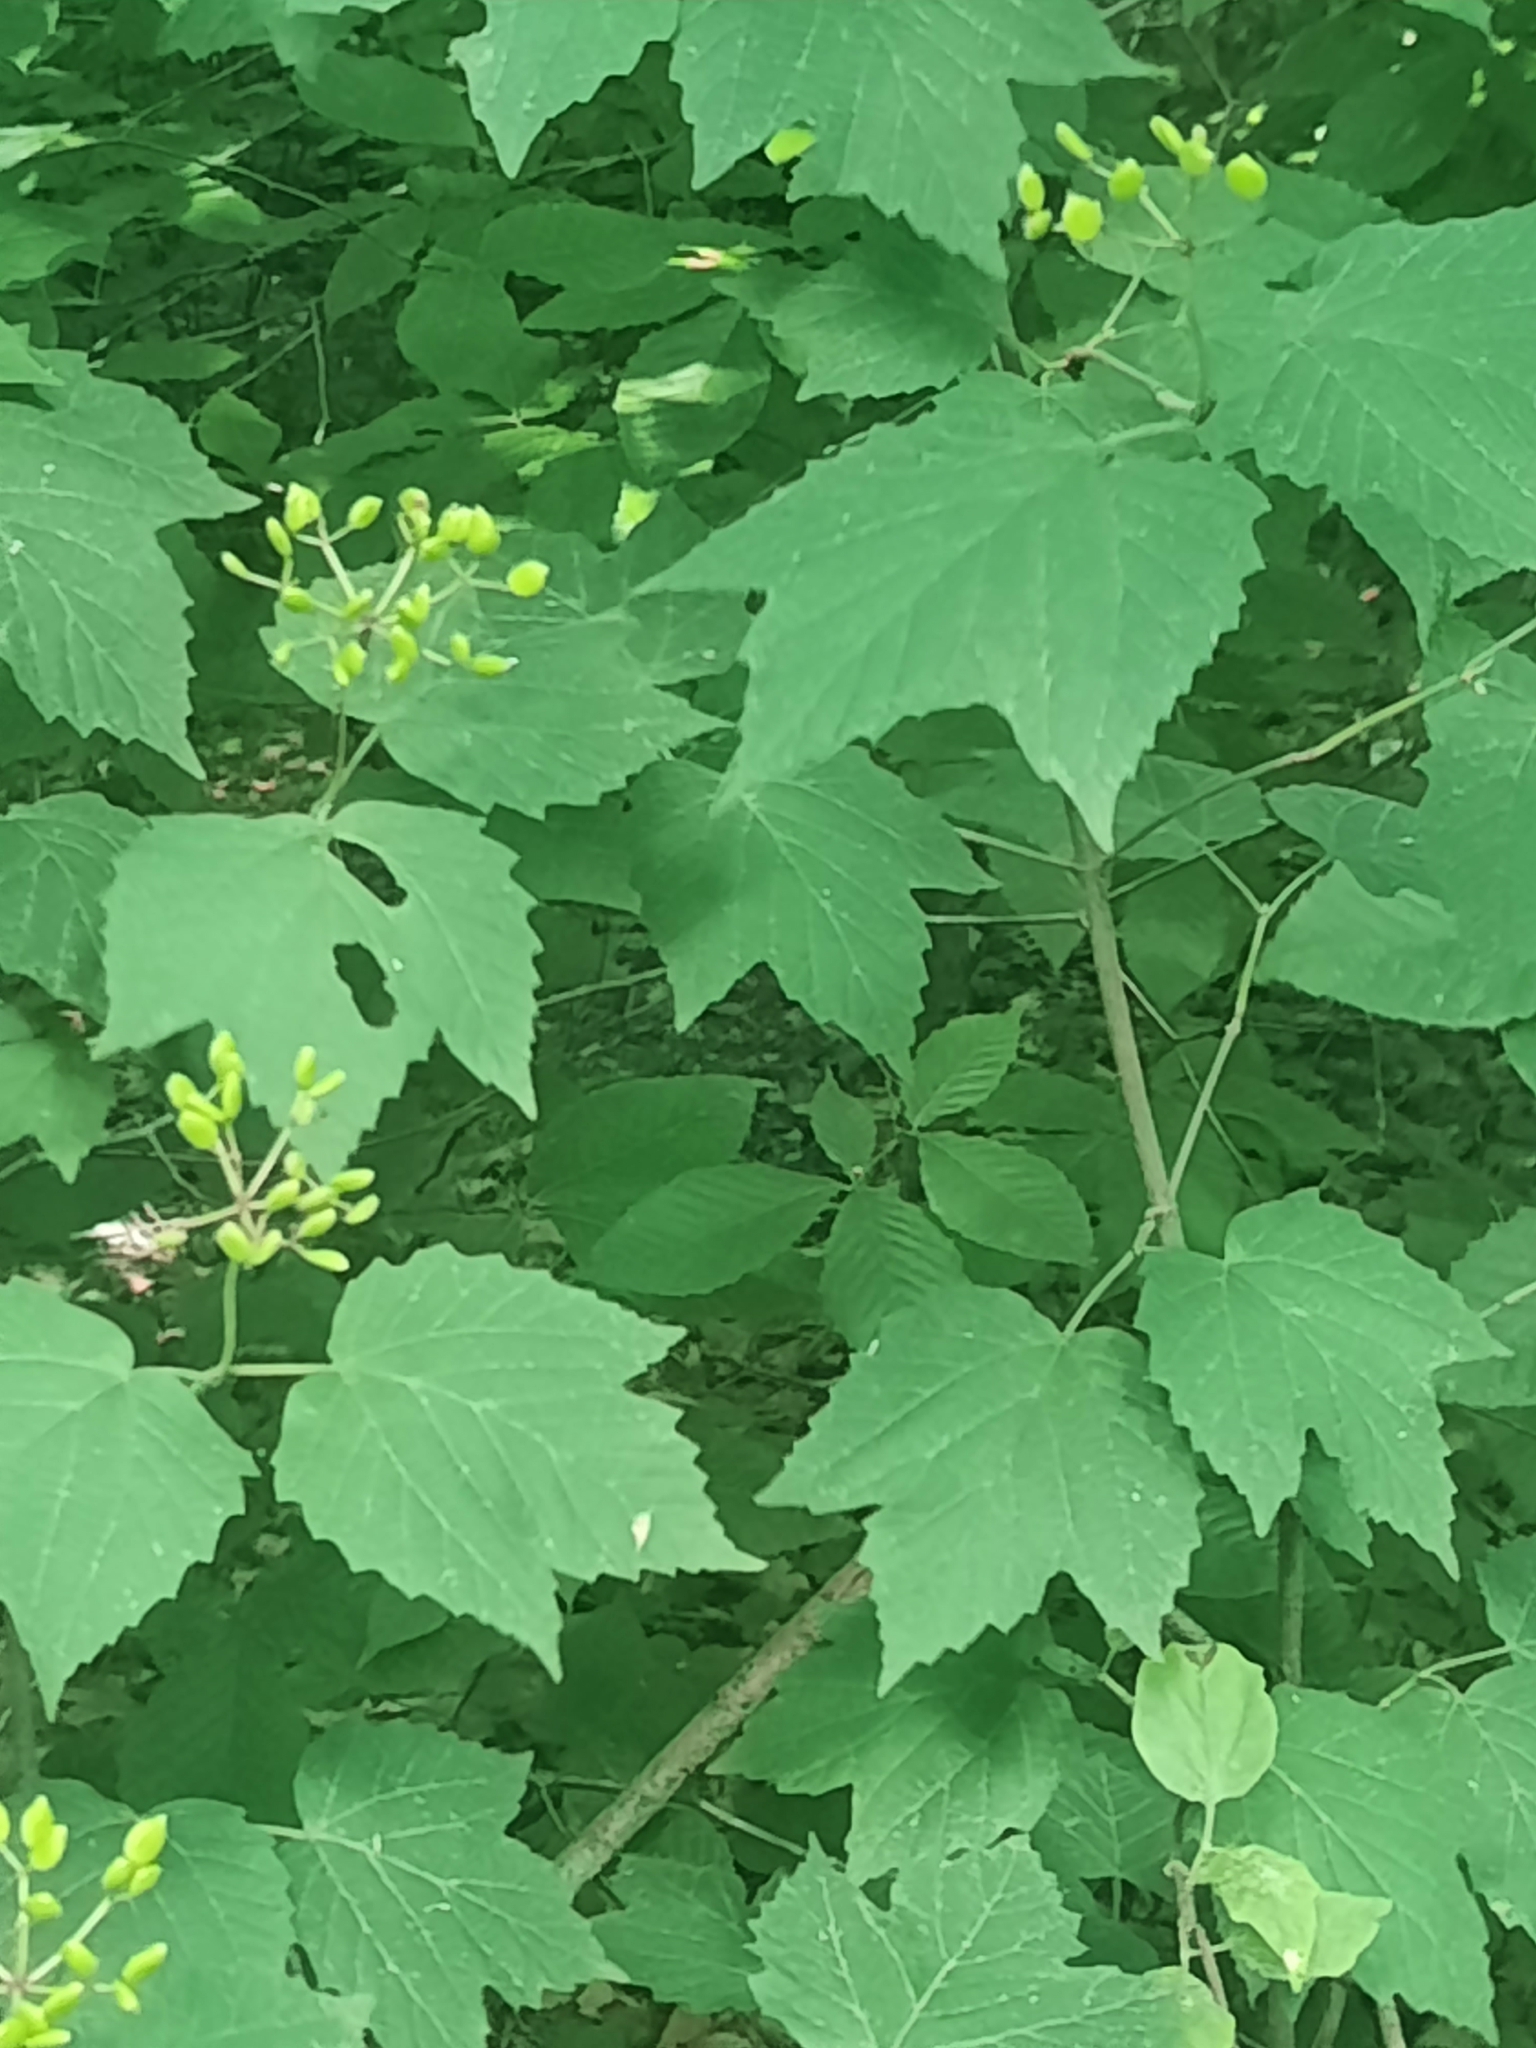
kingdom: Plantae
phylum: Tracheophyta
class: Magnoliopsida
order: Dipsacales
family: Viburnaceae
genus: Viburnum
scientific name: Viburnum acerifolium
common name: Dockmackie
